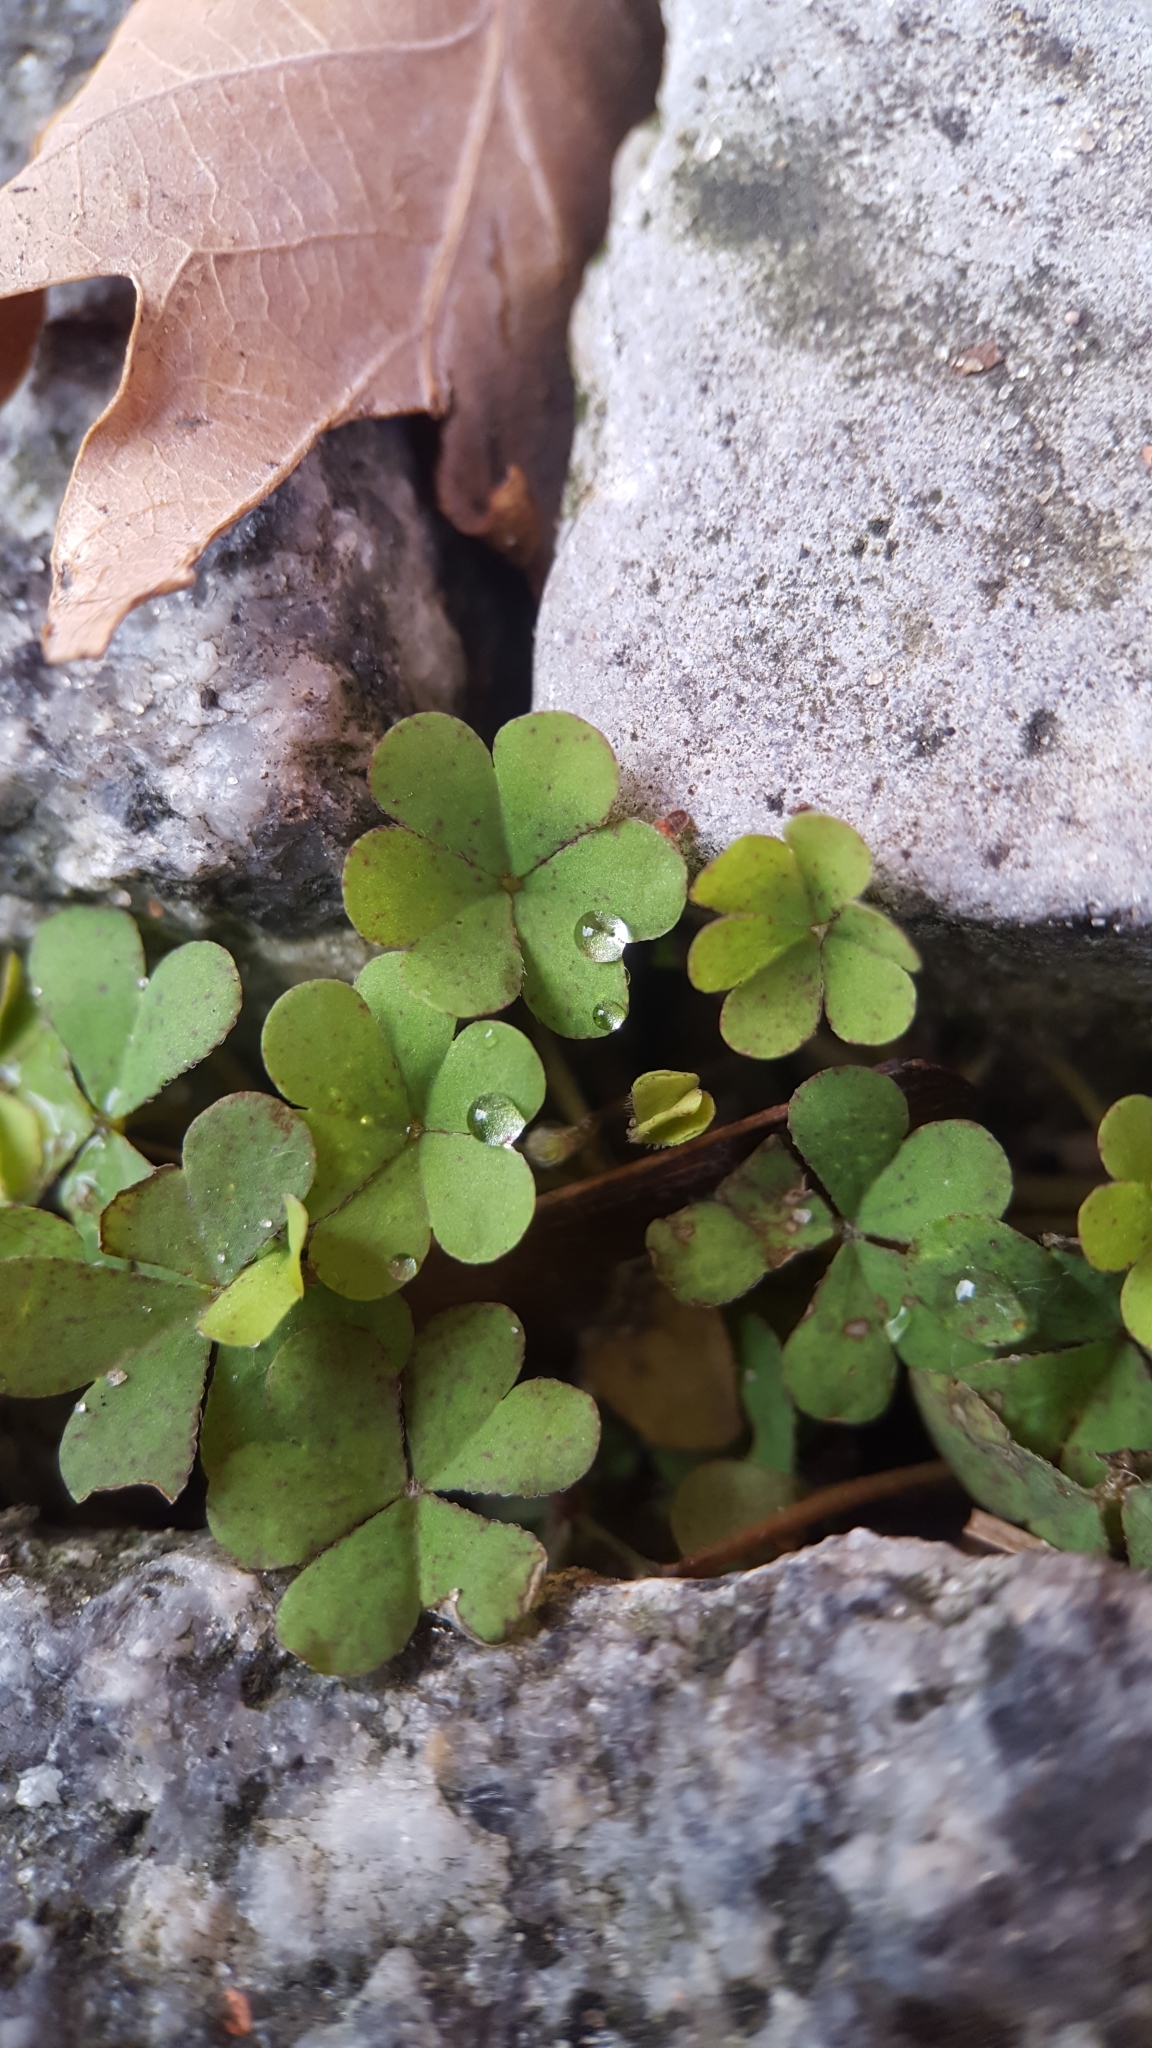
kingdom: Plantae
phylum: Tracheophyta
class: Magnoliopsida
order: Oxalidales
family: Oxalidaceae
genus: Oxalis
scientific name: Oxalis corniculata
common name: Procumbent yellow-sorrel
